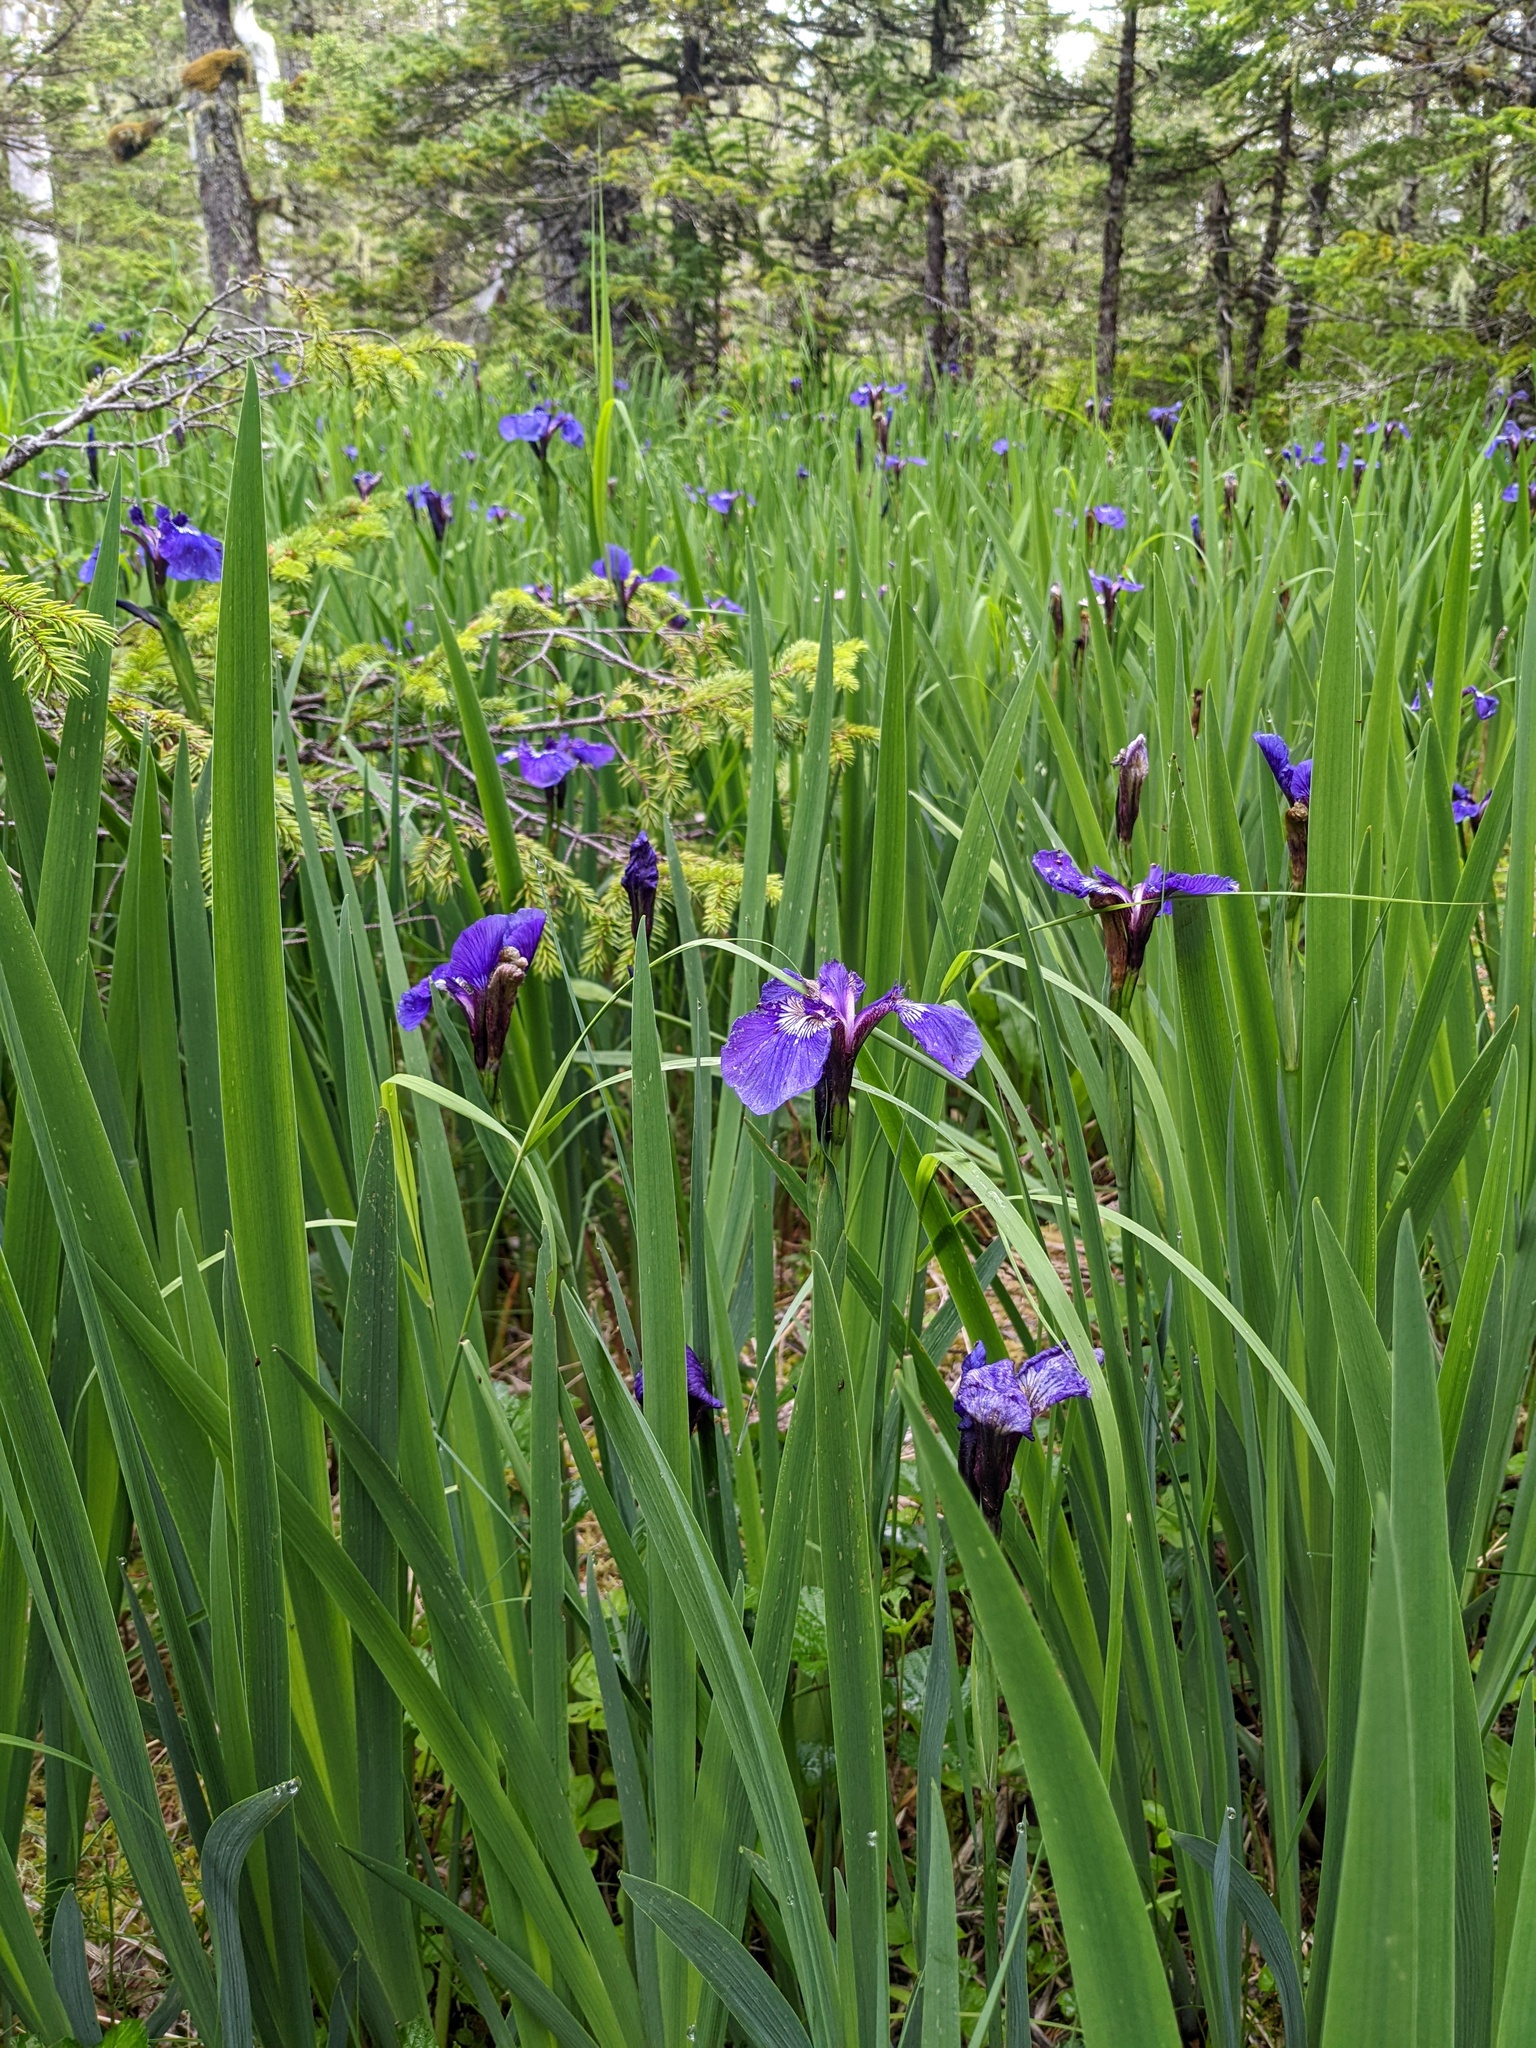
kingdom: Plantae
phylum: Tracheophyta
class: Liliopsida
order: Asparagales
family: Iridaceae
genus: Iris
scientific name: Iris setosa
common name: Arctic blue flag
